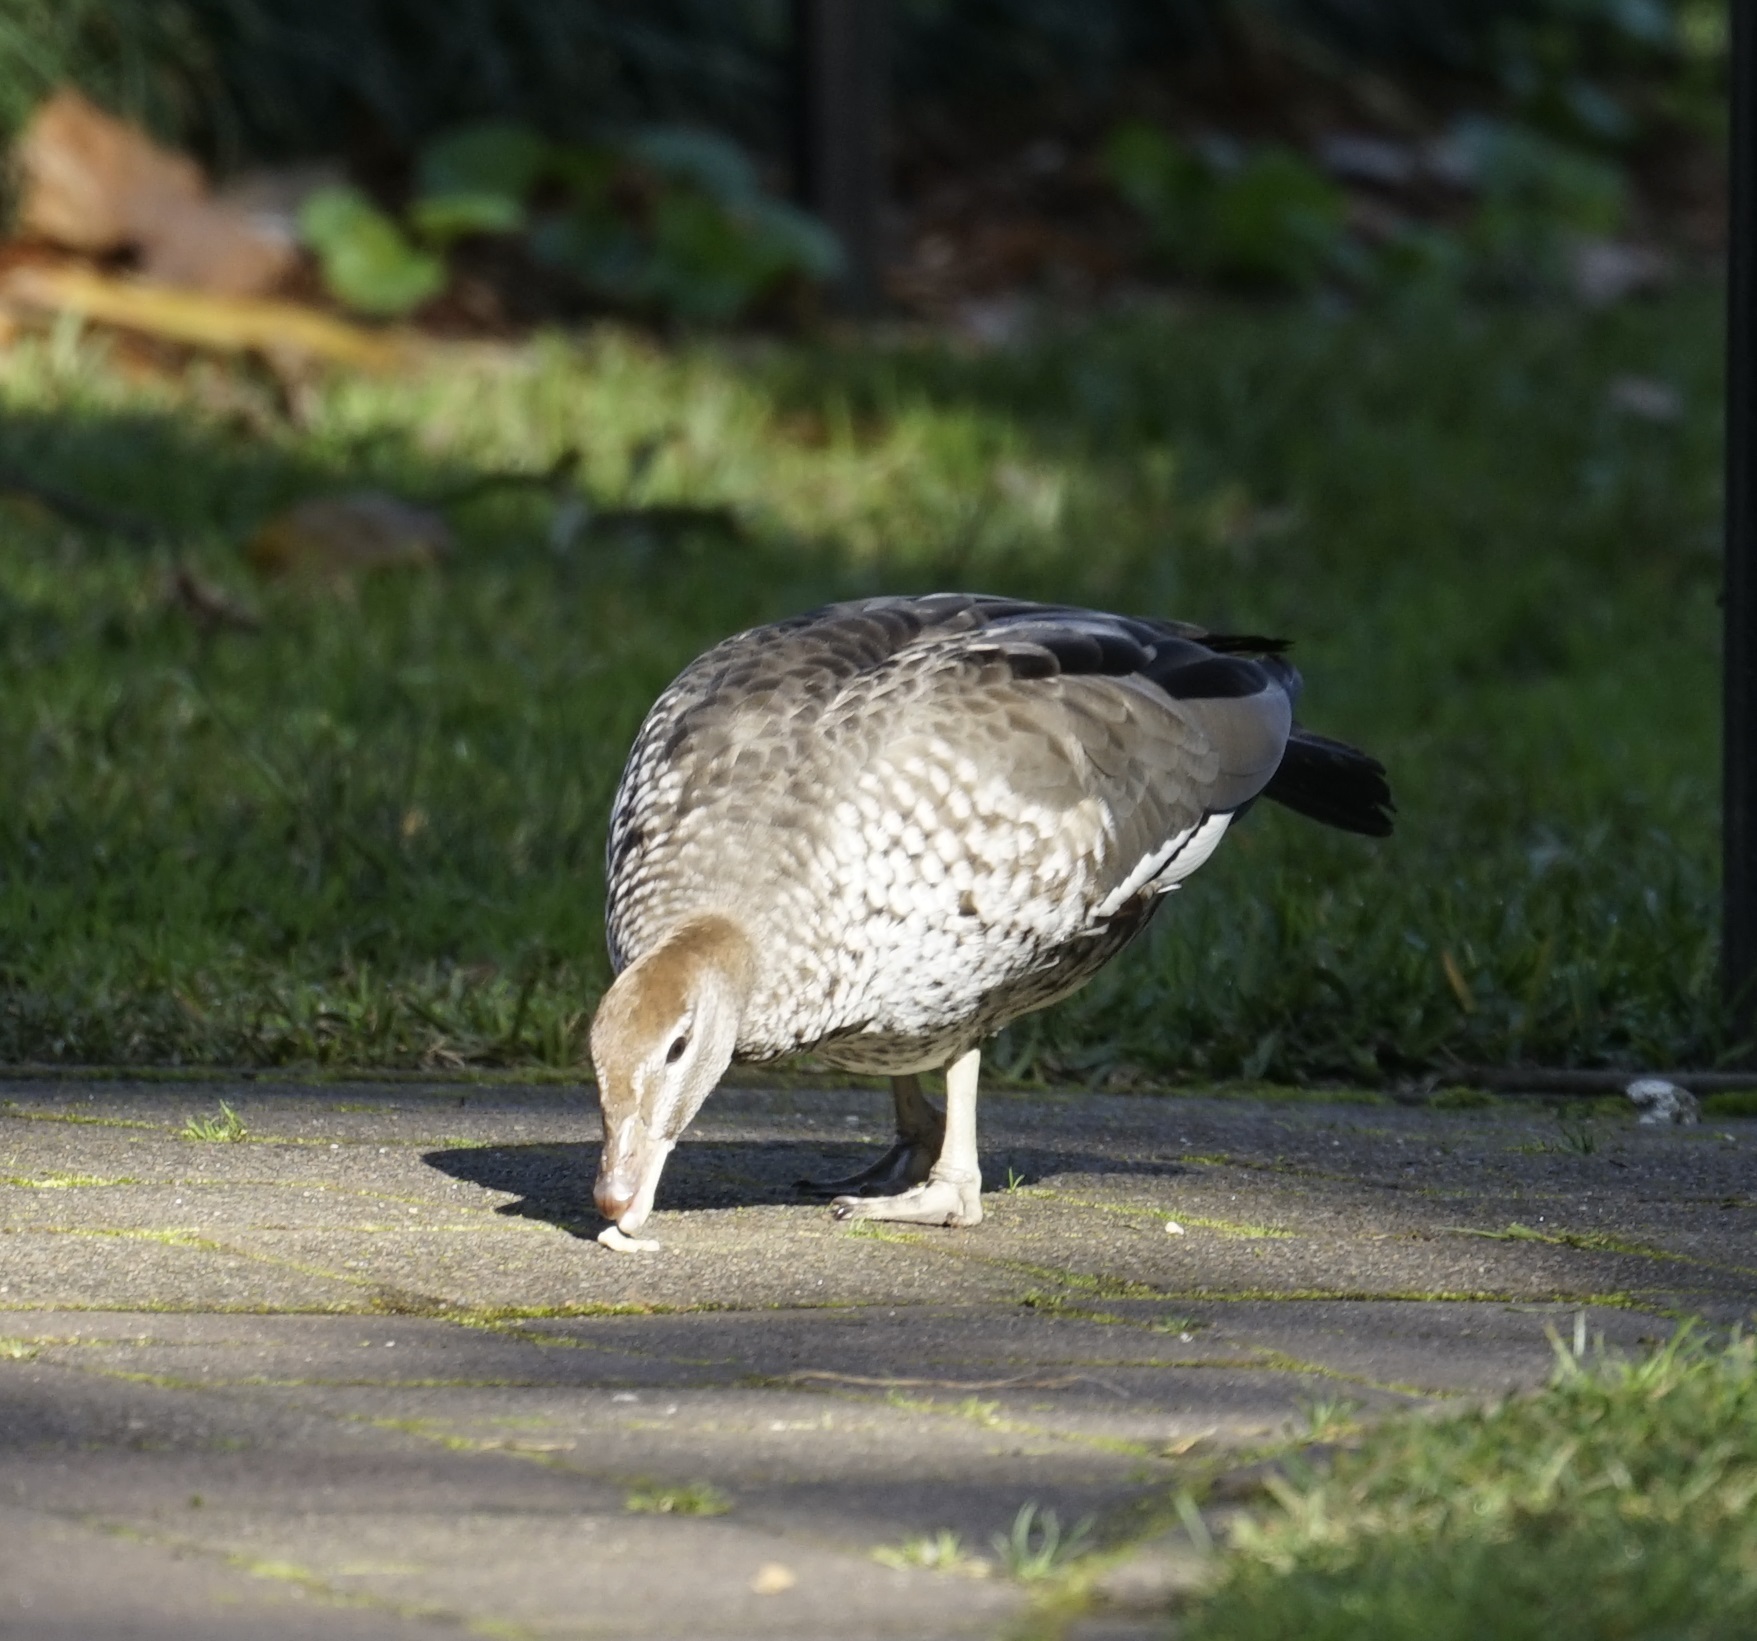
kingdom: Animalia
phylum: Chordata
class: Aves
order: Anseriformes
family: Anatidae
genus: Chenonetta
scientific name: Chenonetta jubata
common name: Maned duck
